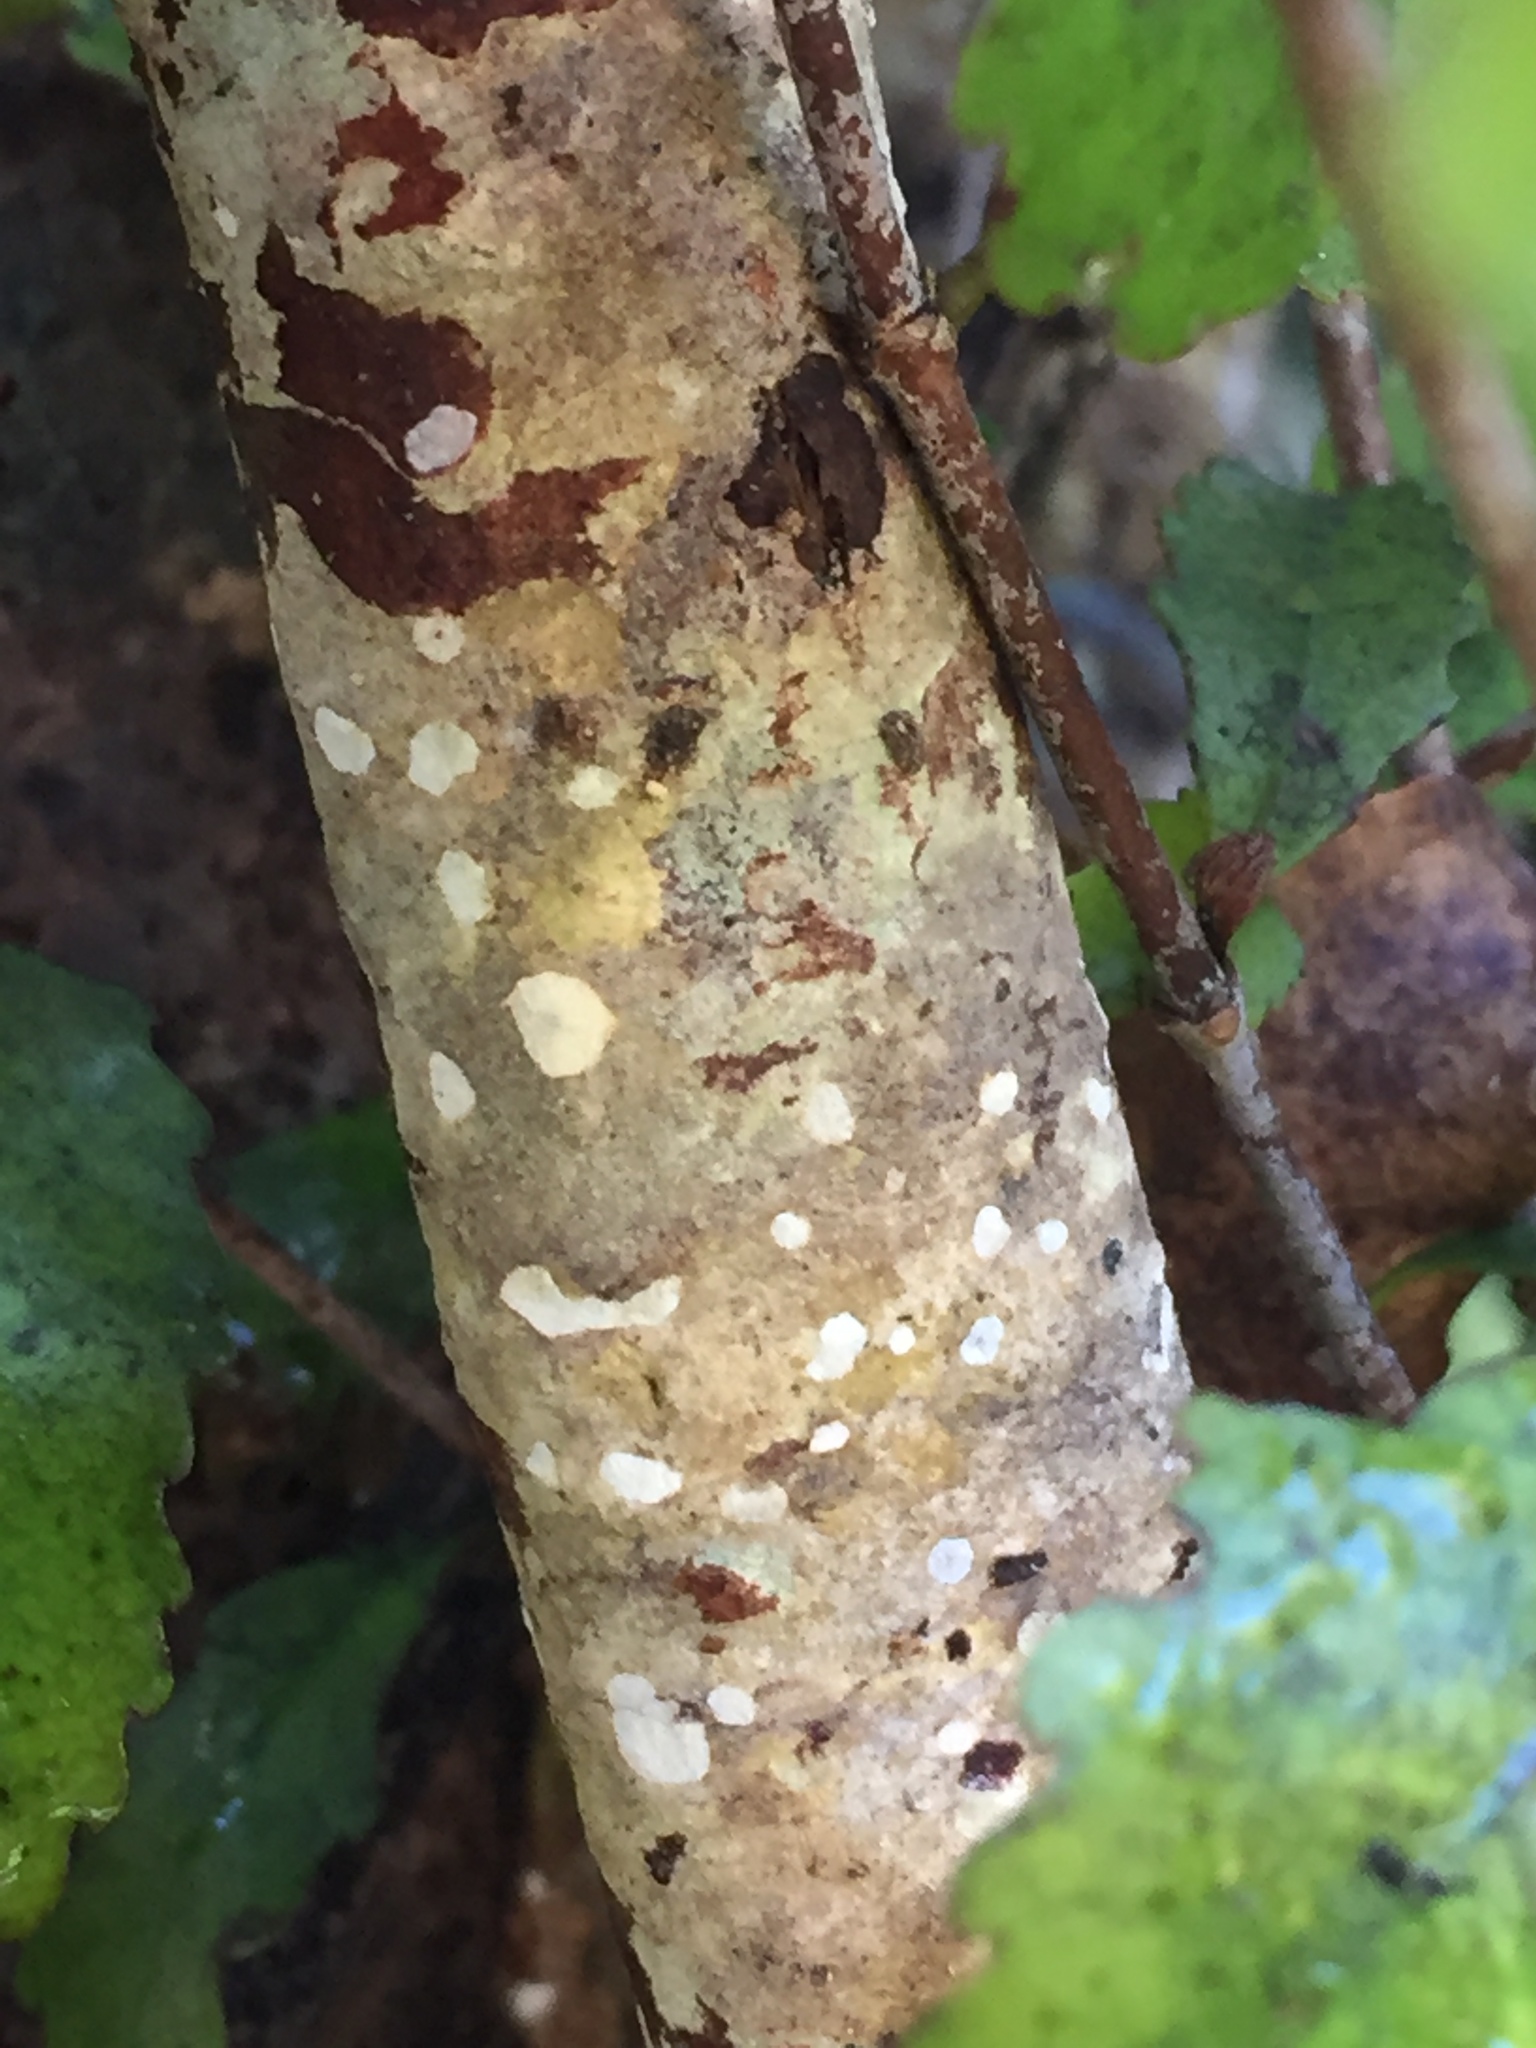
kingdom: Plantae
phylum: Tracheophyta
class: Magnoliopsida
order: Oxalidales
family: Cunoniaceae
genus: Pterophylla
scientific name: Pterophylla racemosa
